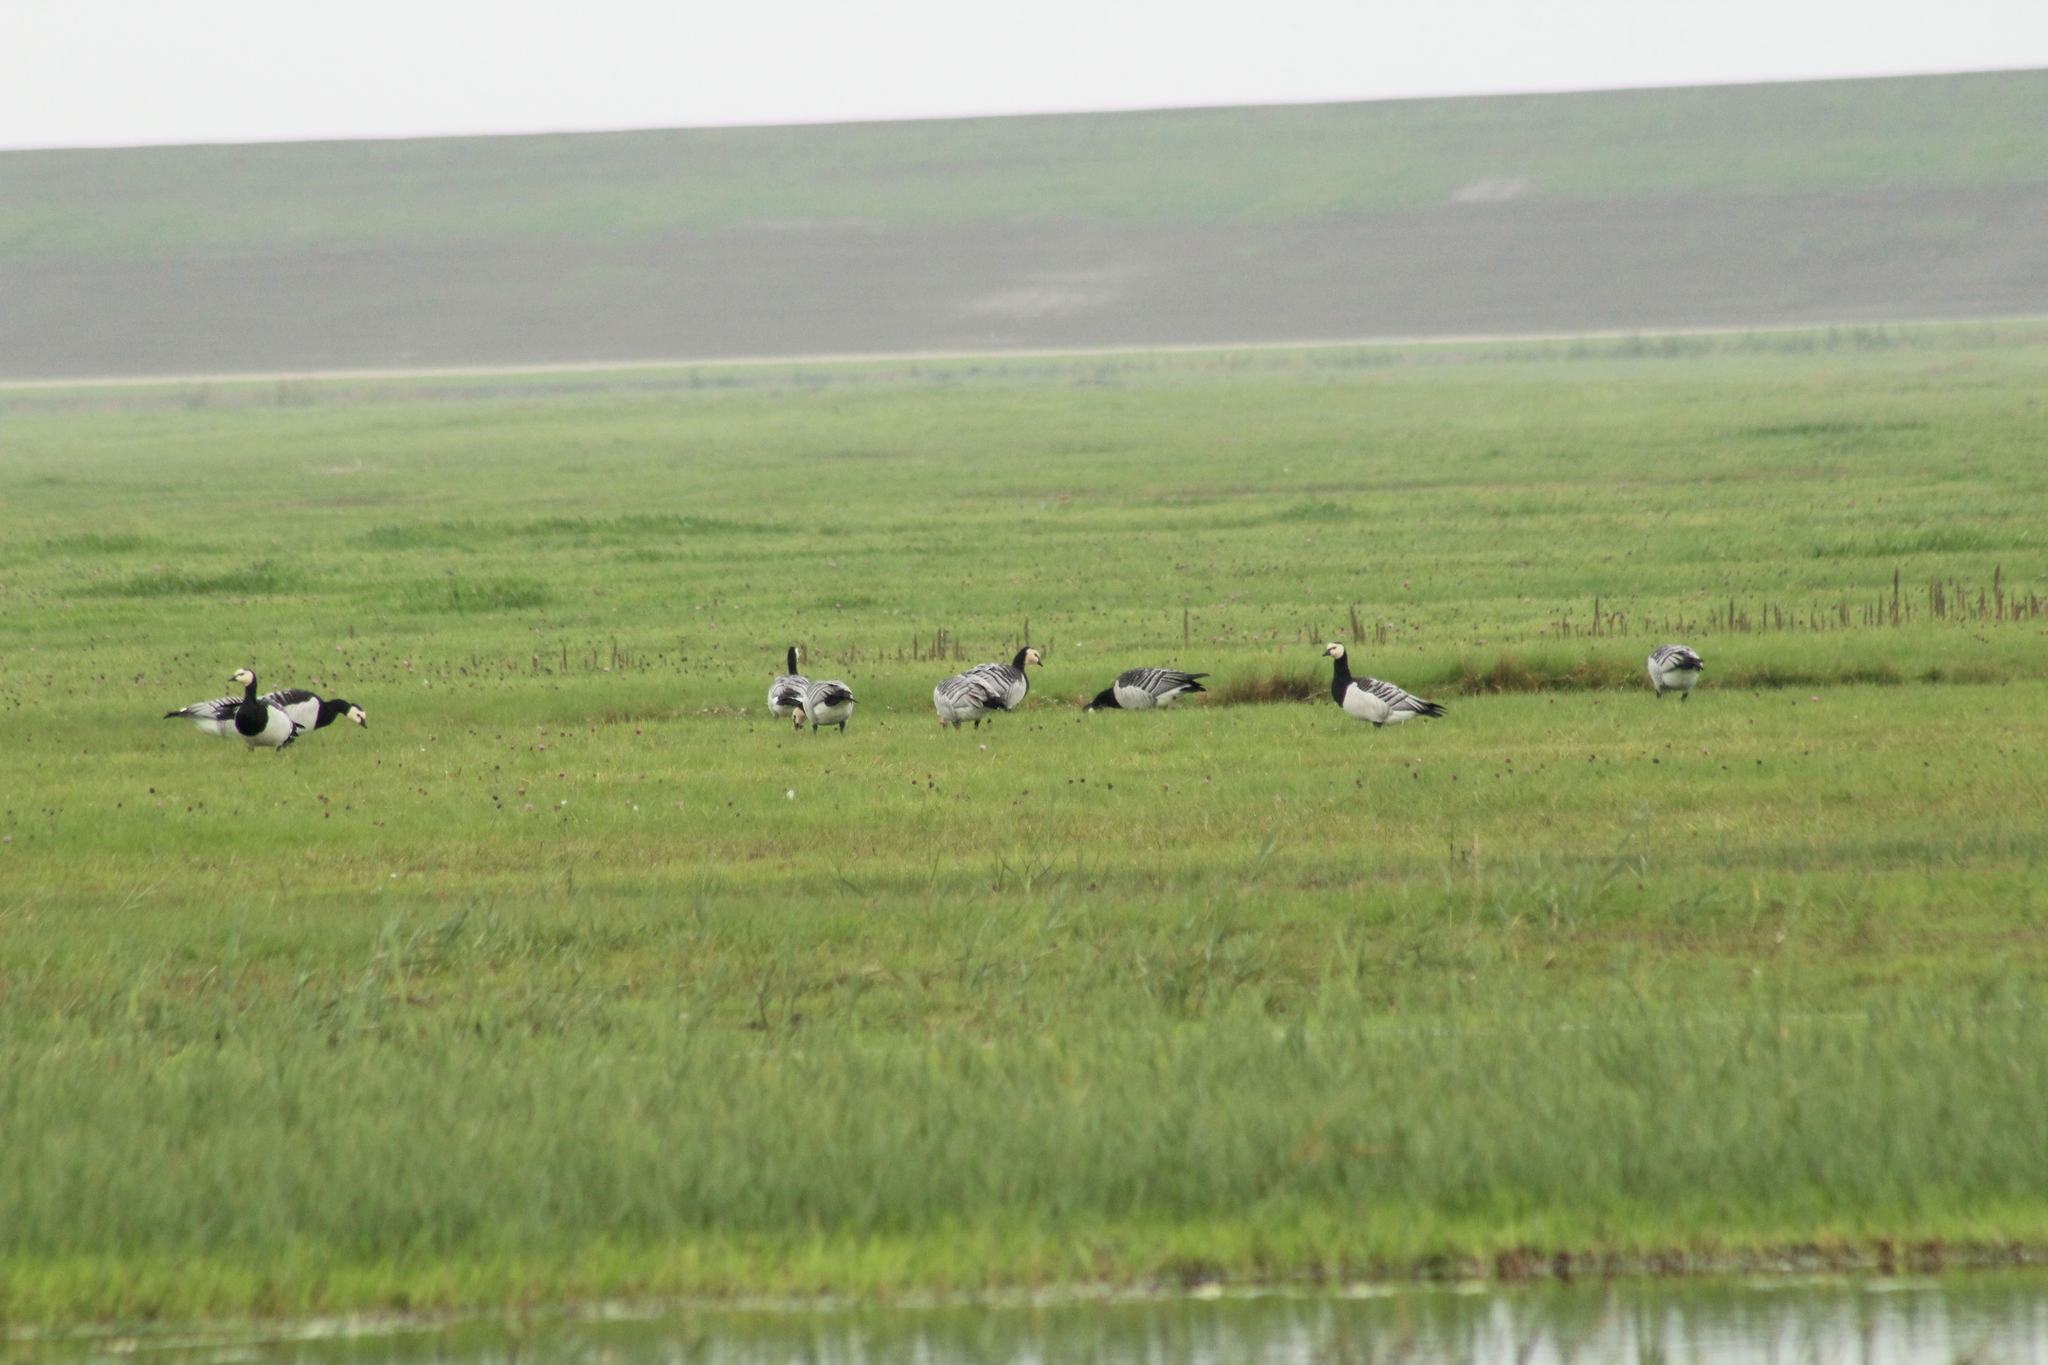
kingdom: Animalia
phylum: Chordata
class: Aves
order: Anseriformes
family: Anatidae
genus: Branta
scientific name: Branta leucopsis
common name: Barnacle goose
